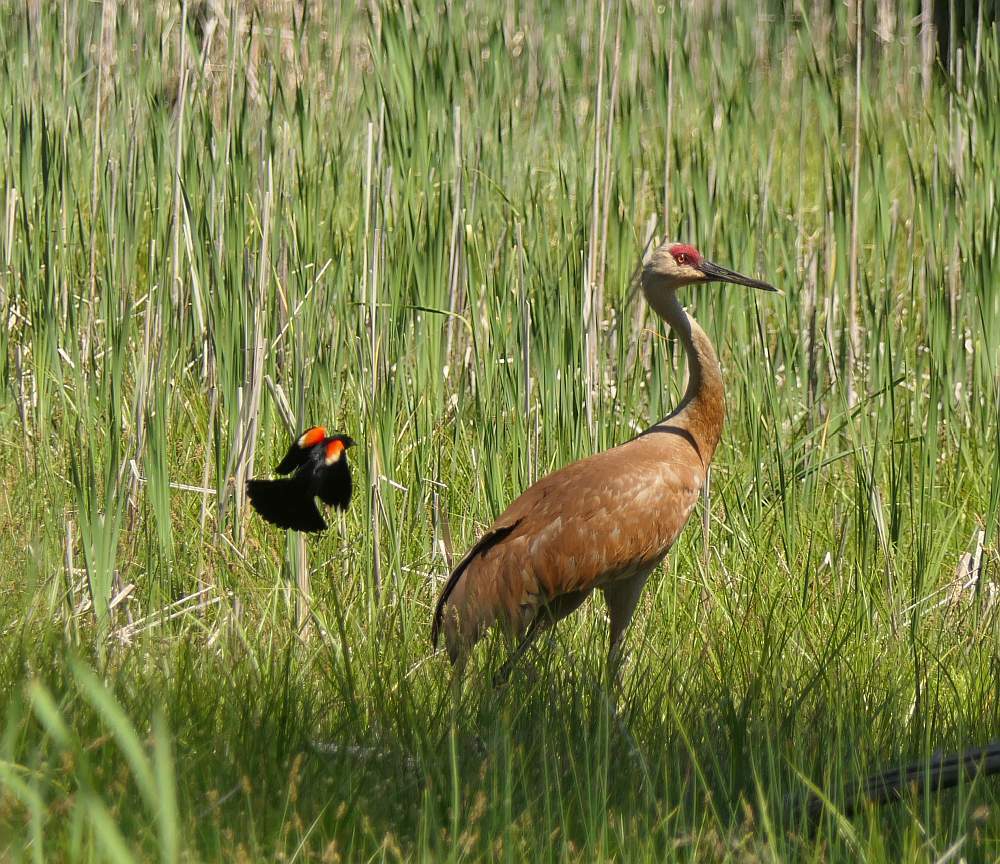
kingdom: Animalia
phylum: Chordata
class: Aves
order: Gruiformes
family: Gruidae
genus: Grus
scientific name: Grus canadensis
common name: Sandhill crane
